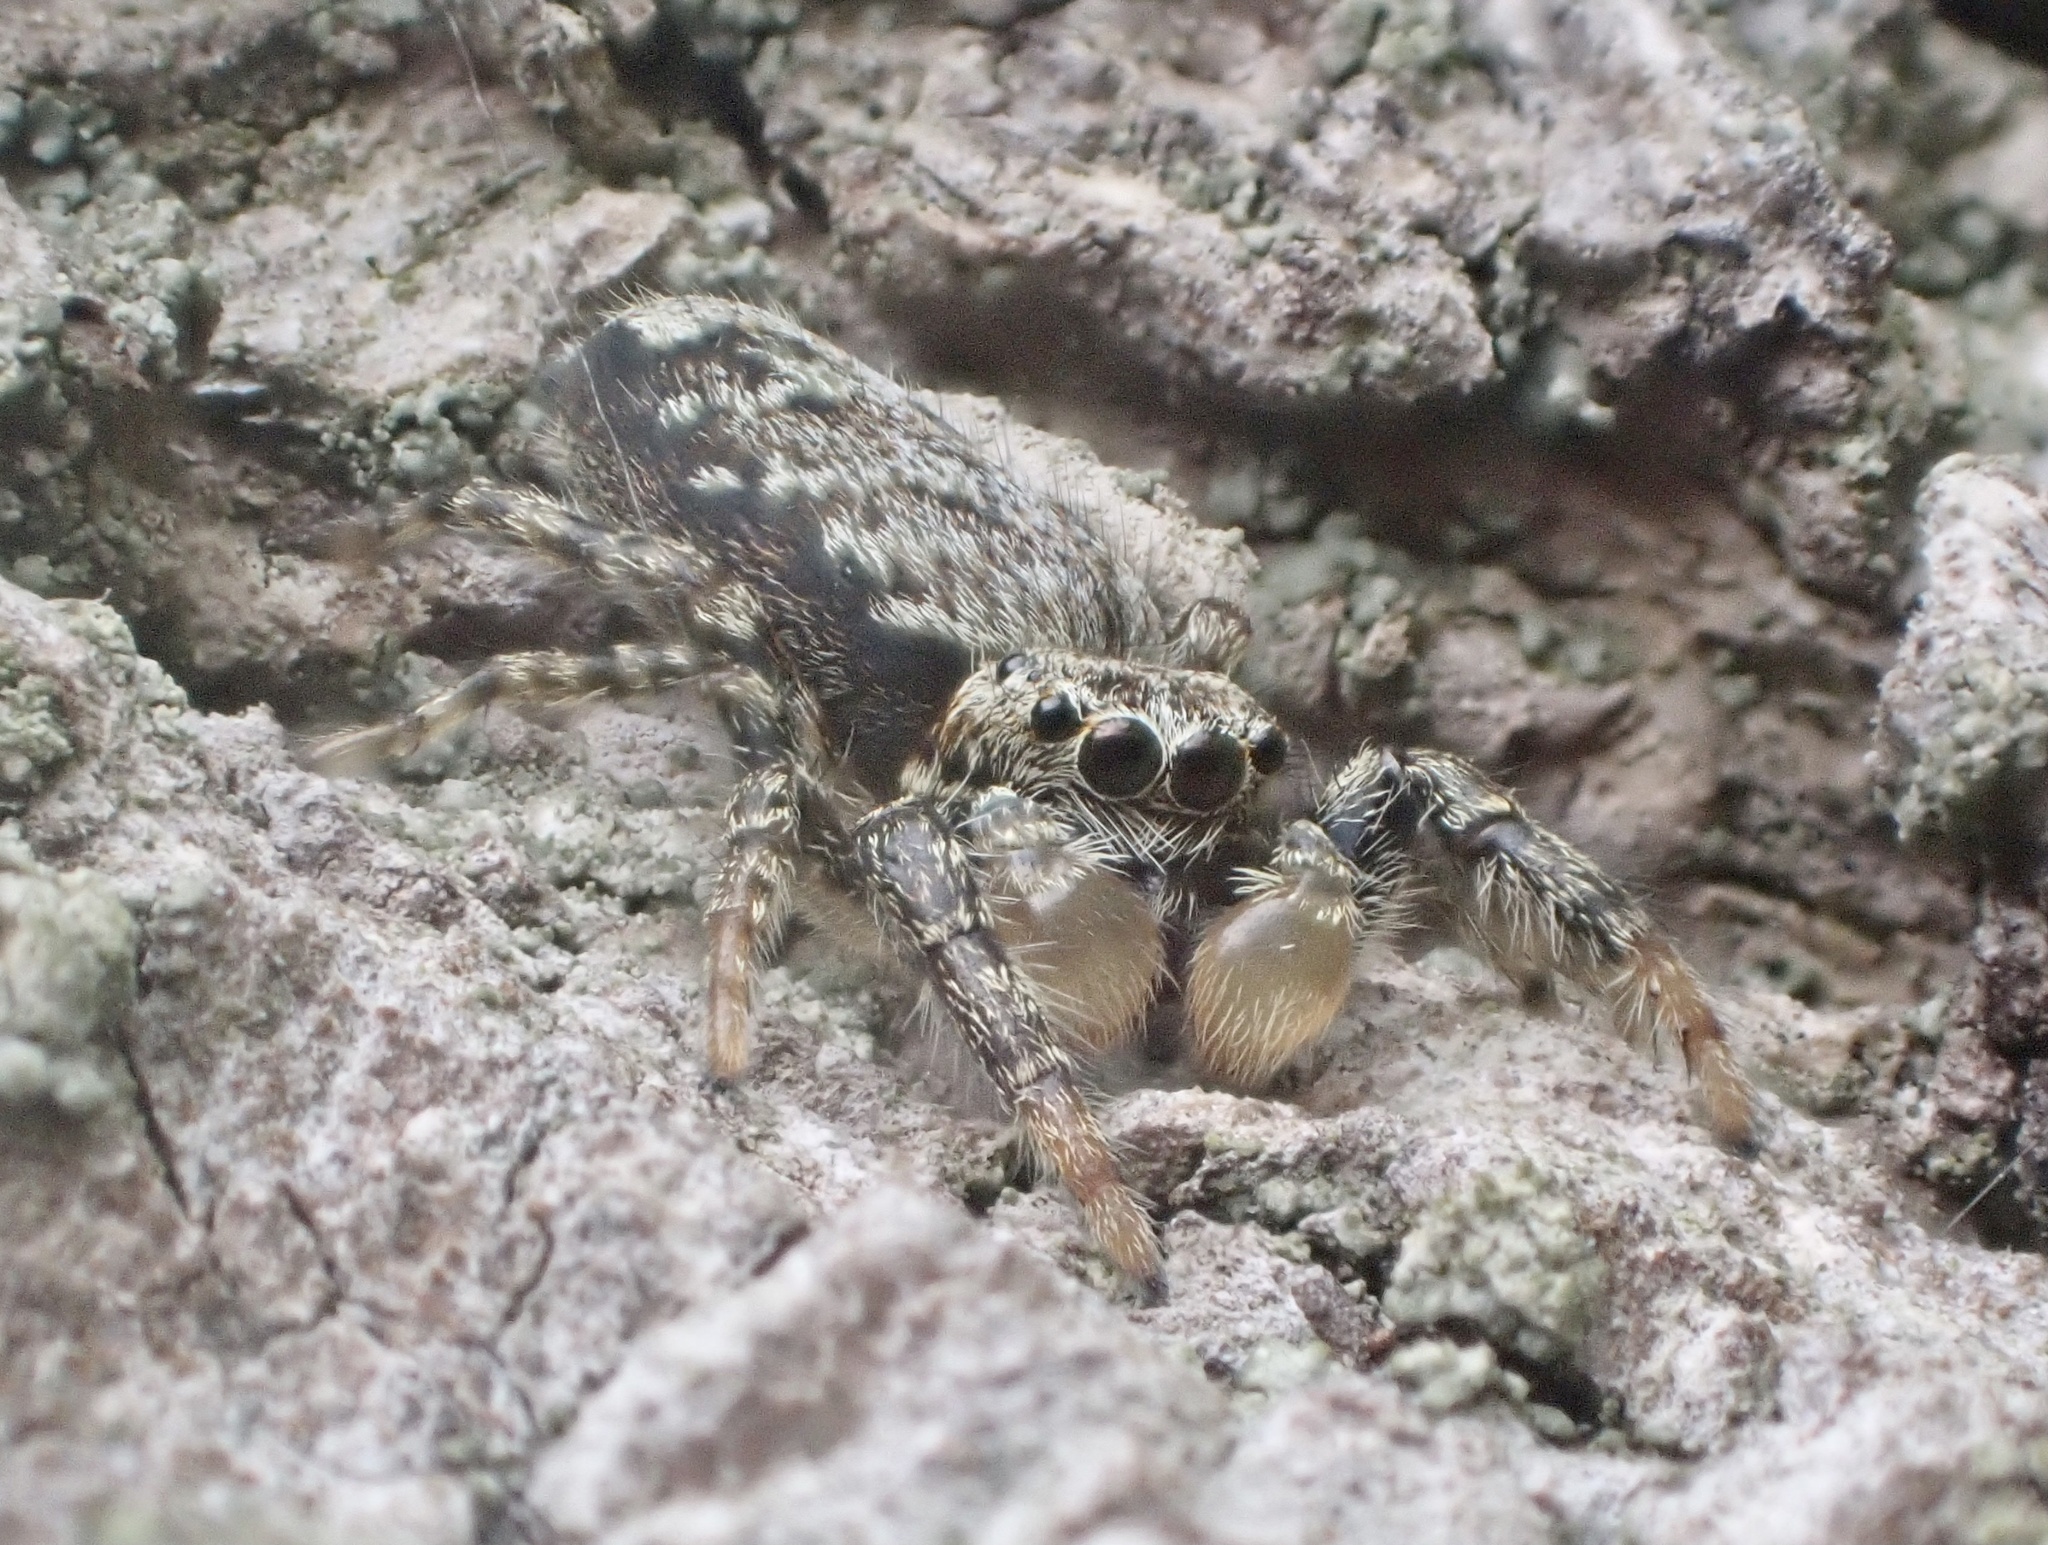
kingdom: Animalia
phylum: Arthropoda
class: Arachnida
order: Araneae
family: Salticidae
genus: Marpissa
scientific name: Marpissa muscosa
